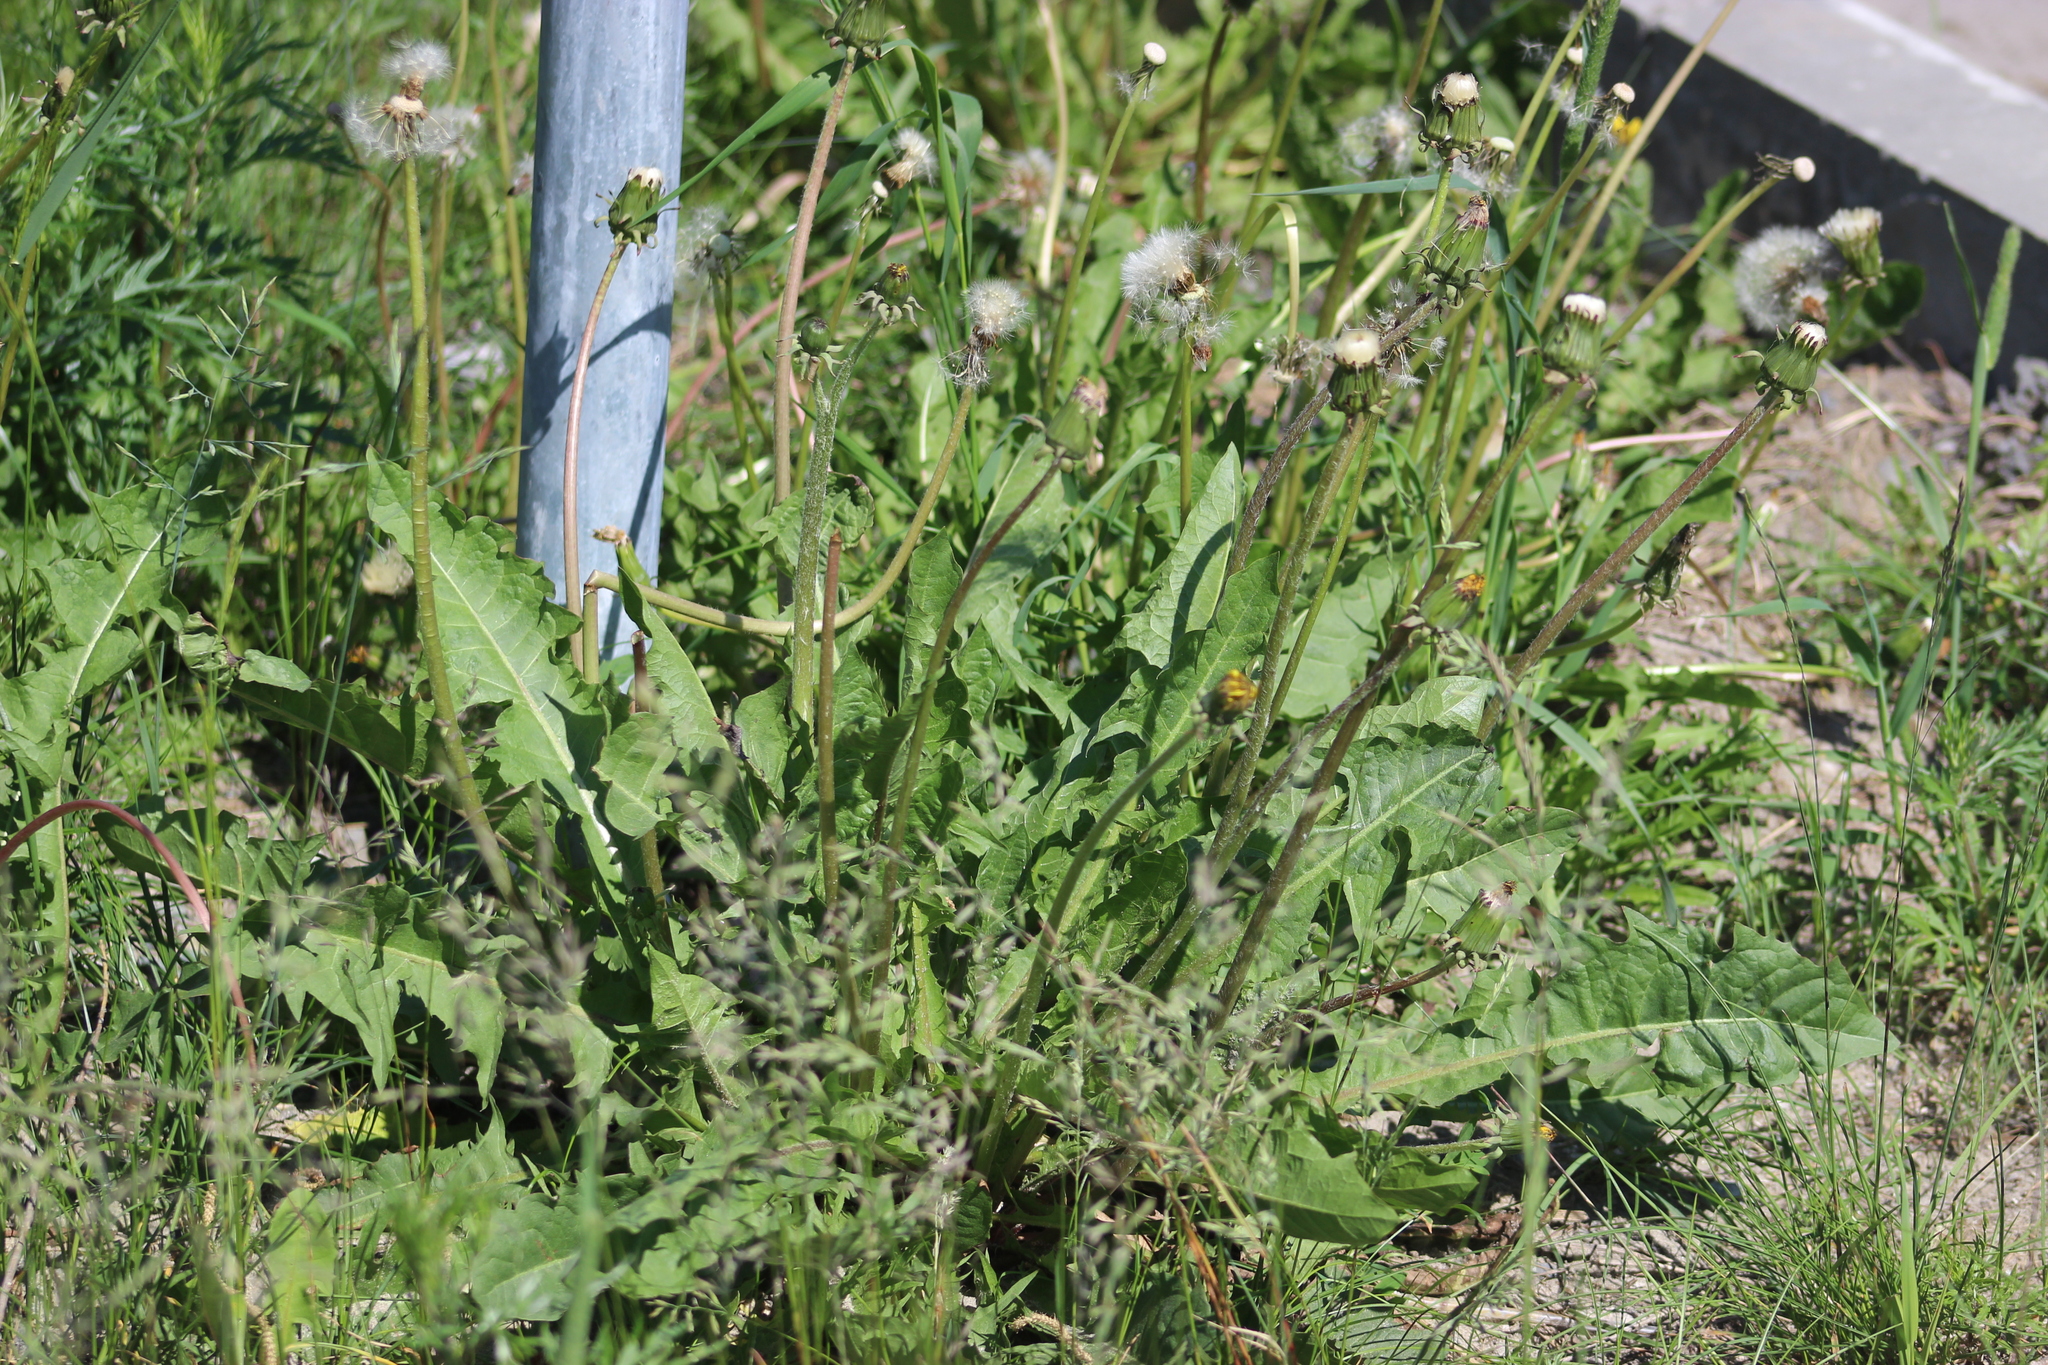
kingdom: Plantae
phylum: Tracheophyta
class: Magnoliopsida
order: Asterales
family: Asteraceae
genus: Taraxacum
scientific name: Taraxacum officinale
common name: Common dandelion
